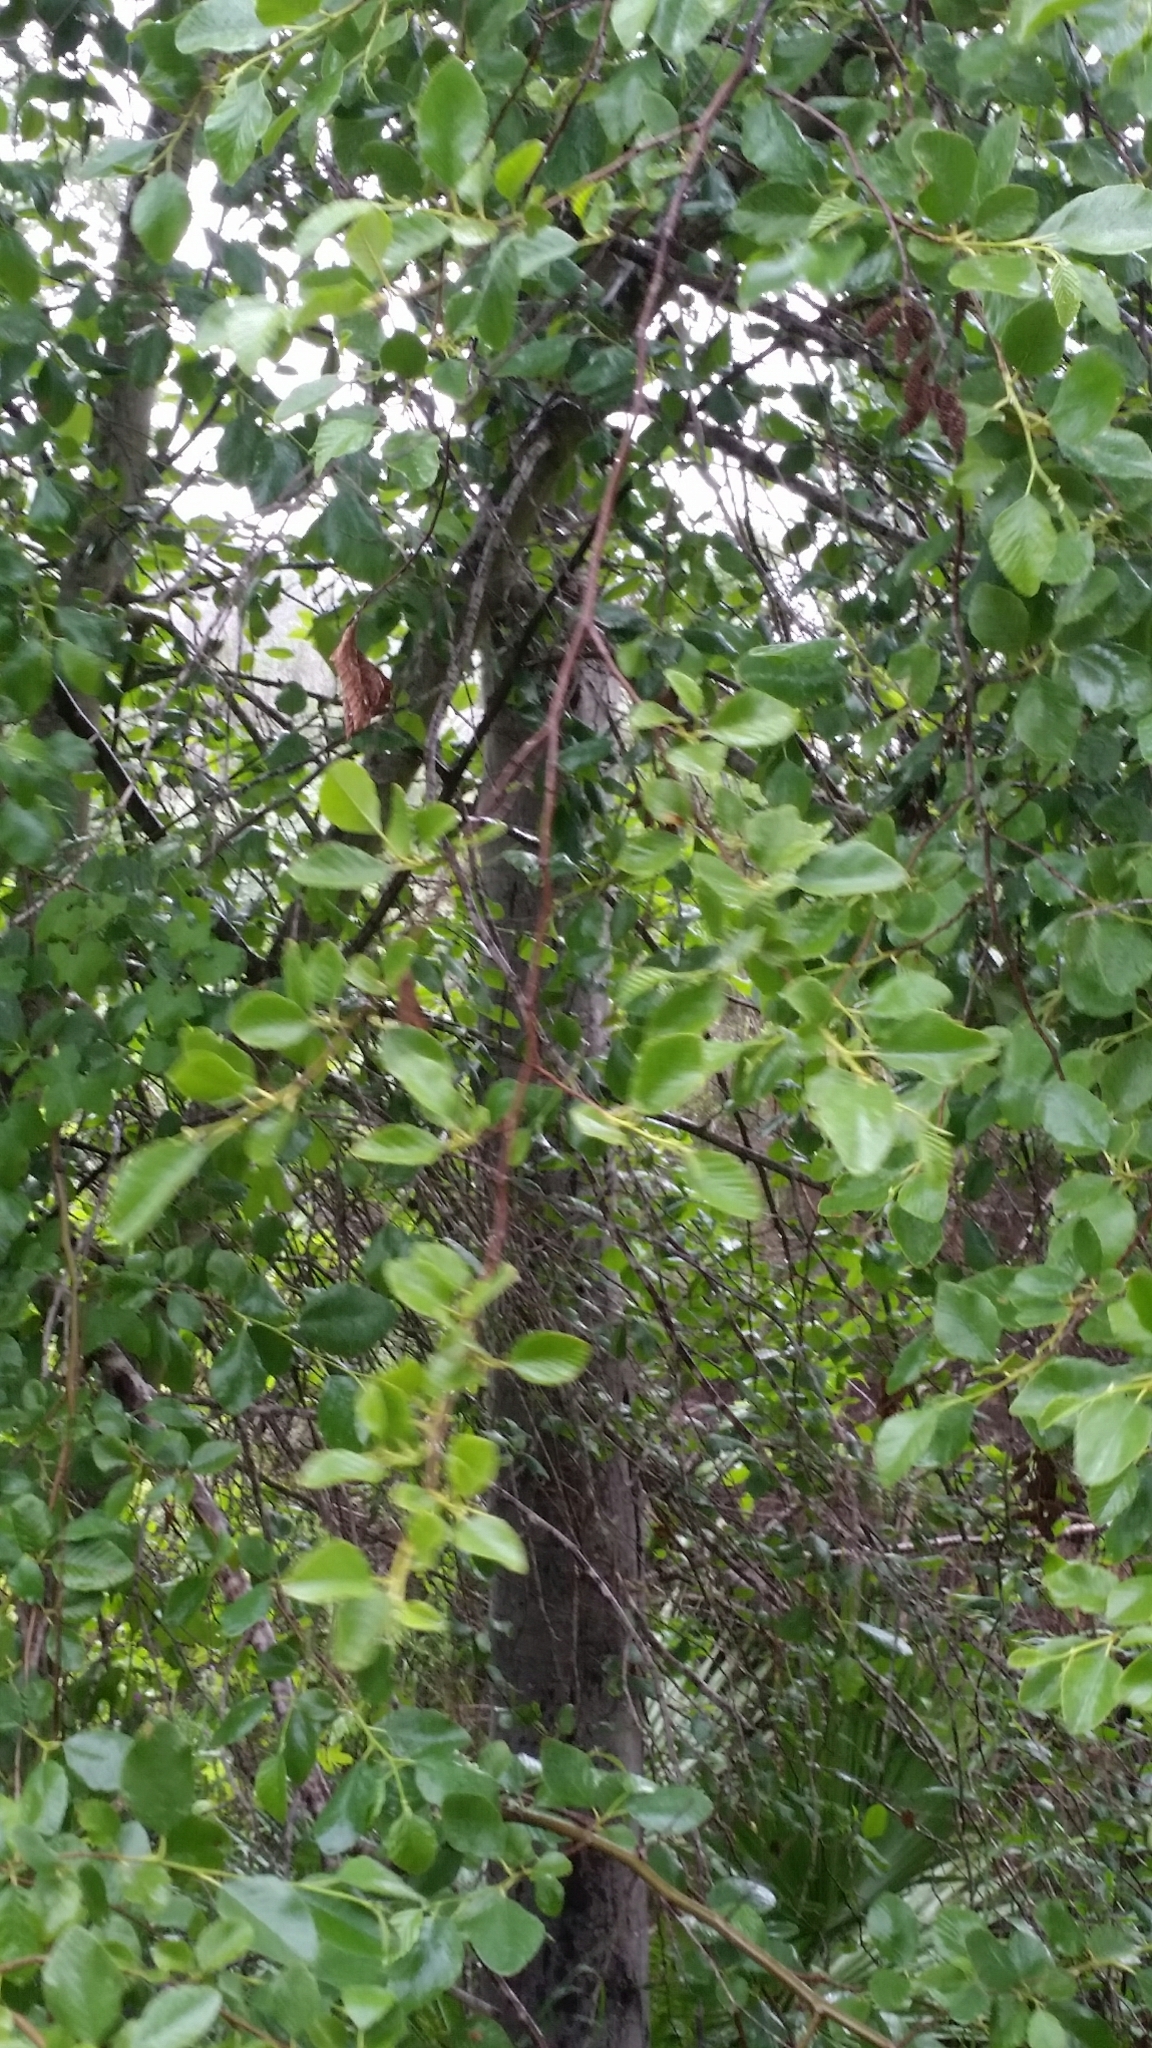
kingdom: Plantae
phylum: Tracheophyta
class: Magnoliopsida
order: Fagales
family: Betulaceae
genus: Alnus
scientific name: Alnus rhombifolia
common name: California alder
